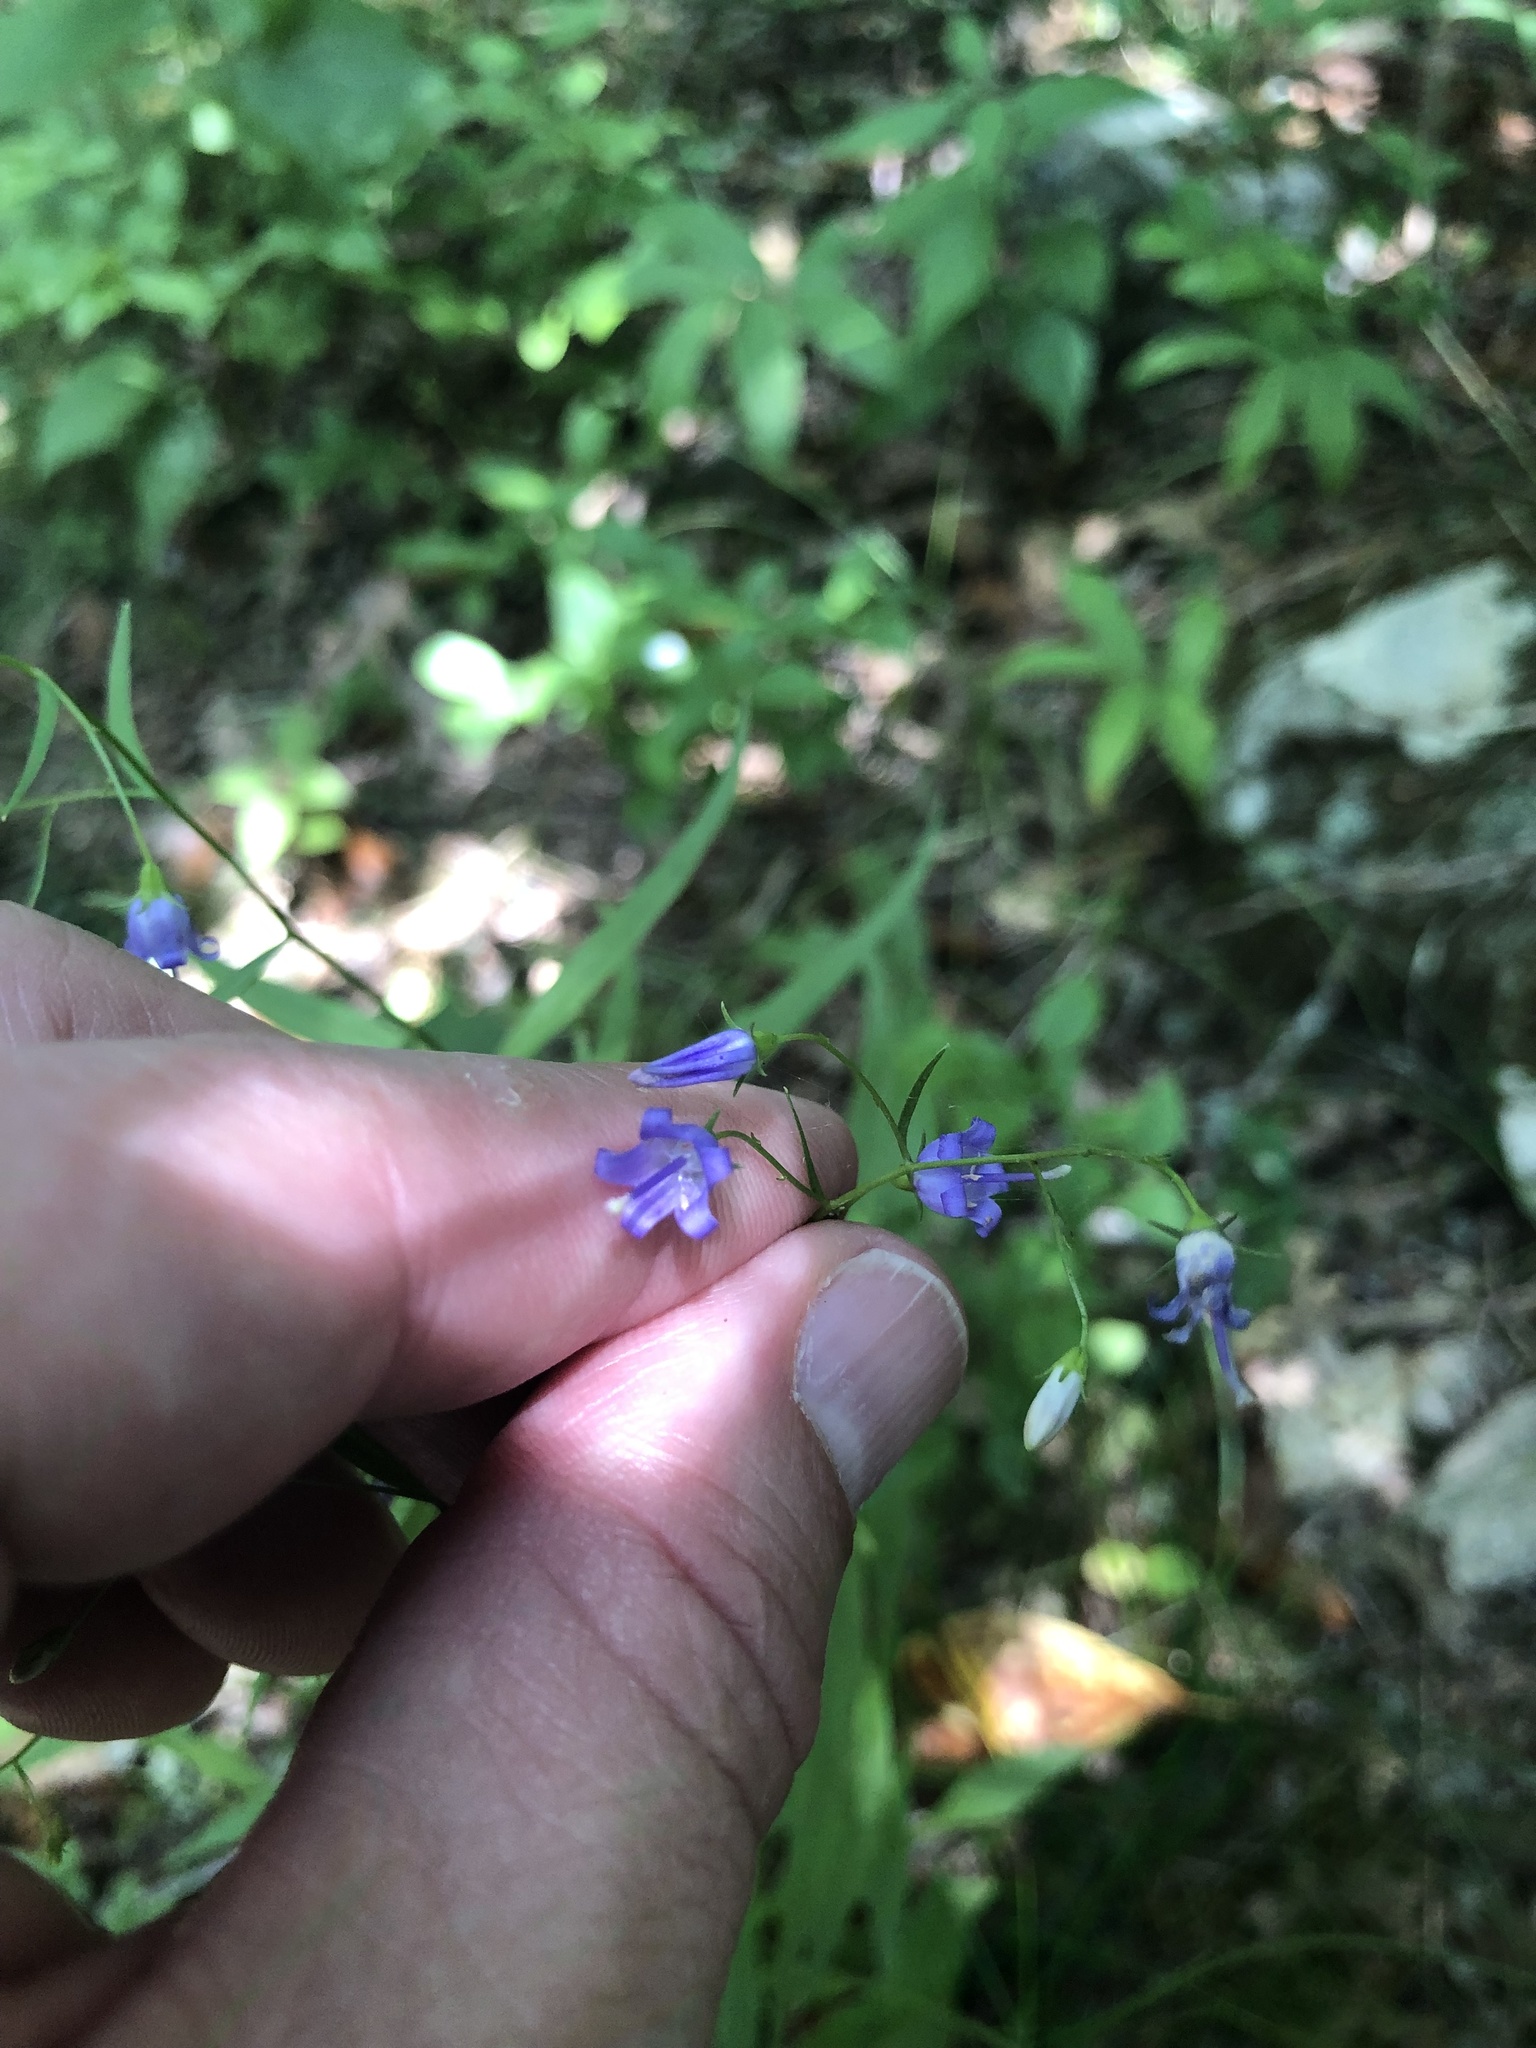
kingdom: Plantae
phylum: Tracheophyta
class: Magnoliopsida
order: Asterales
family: Campanulaceae
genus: Campanula
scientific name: Campanula divaricata
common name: Appalachian bellflower
